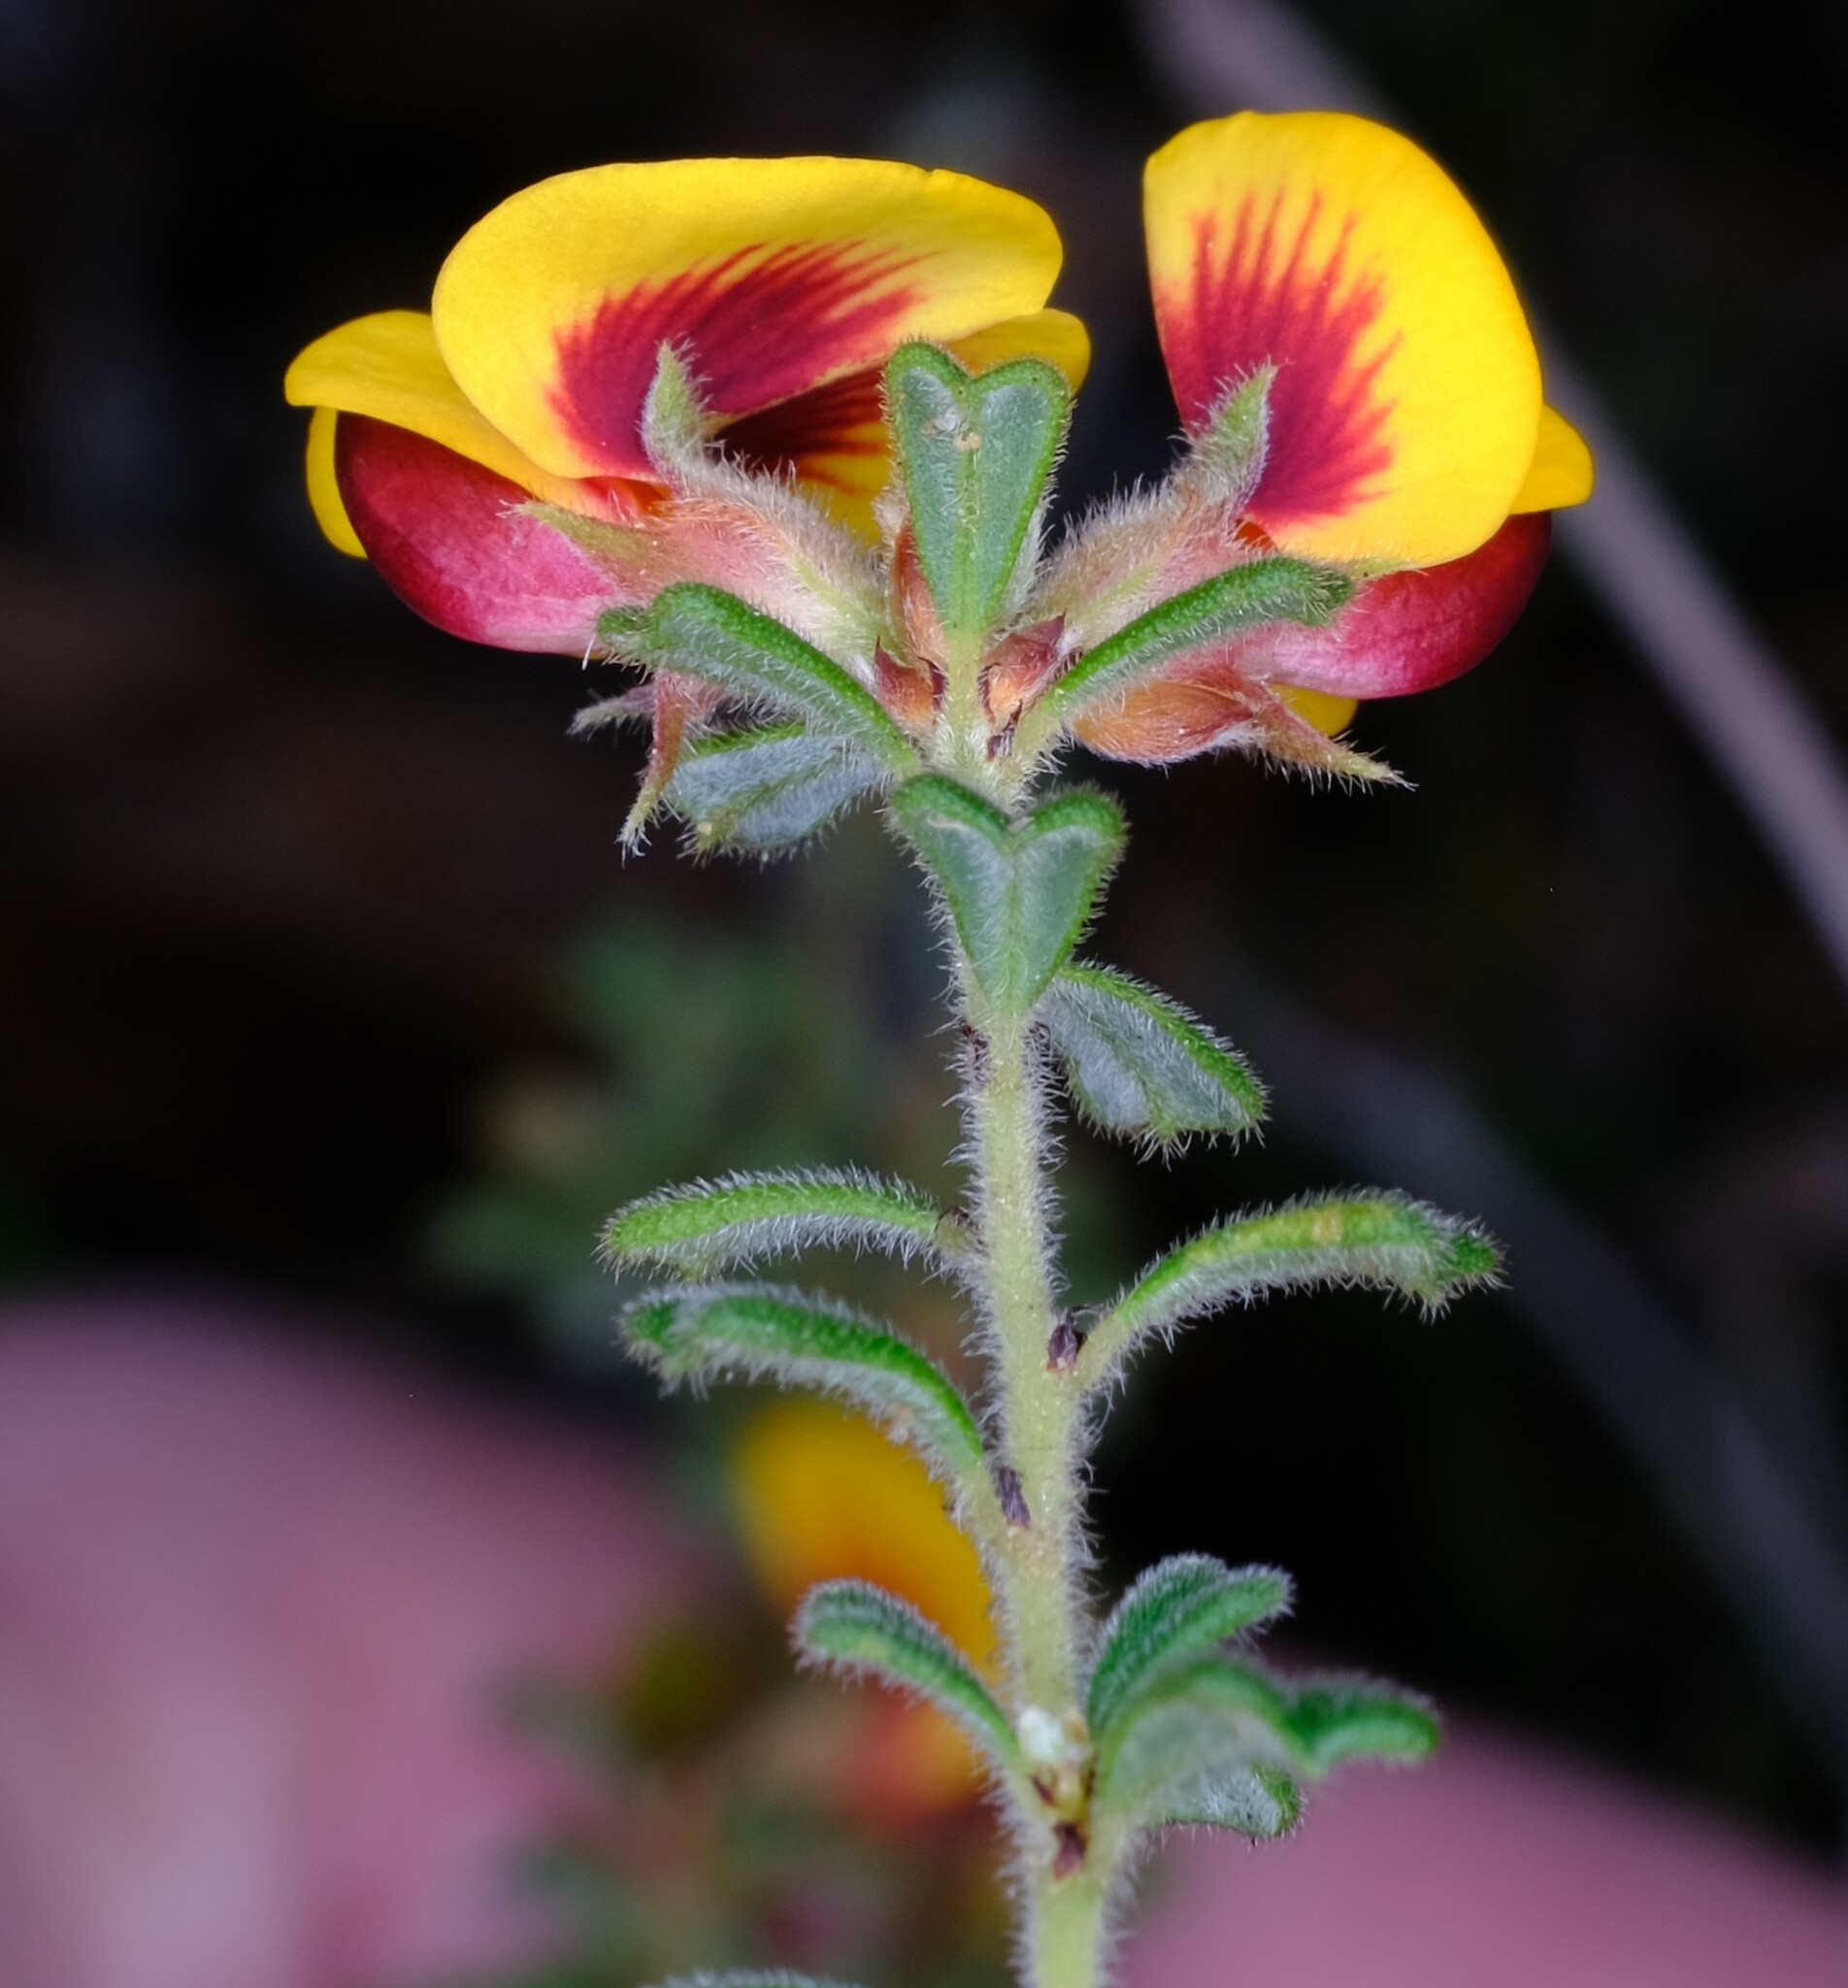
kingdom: Plantae
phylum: Tracheophyta
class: Magnoliopsida
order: Fabales
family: Fabaceae
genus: Pultenaea
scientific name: Pultenaea scabra
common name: Rough bush-pea
